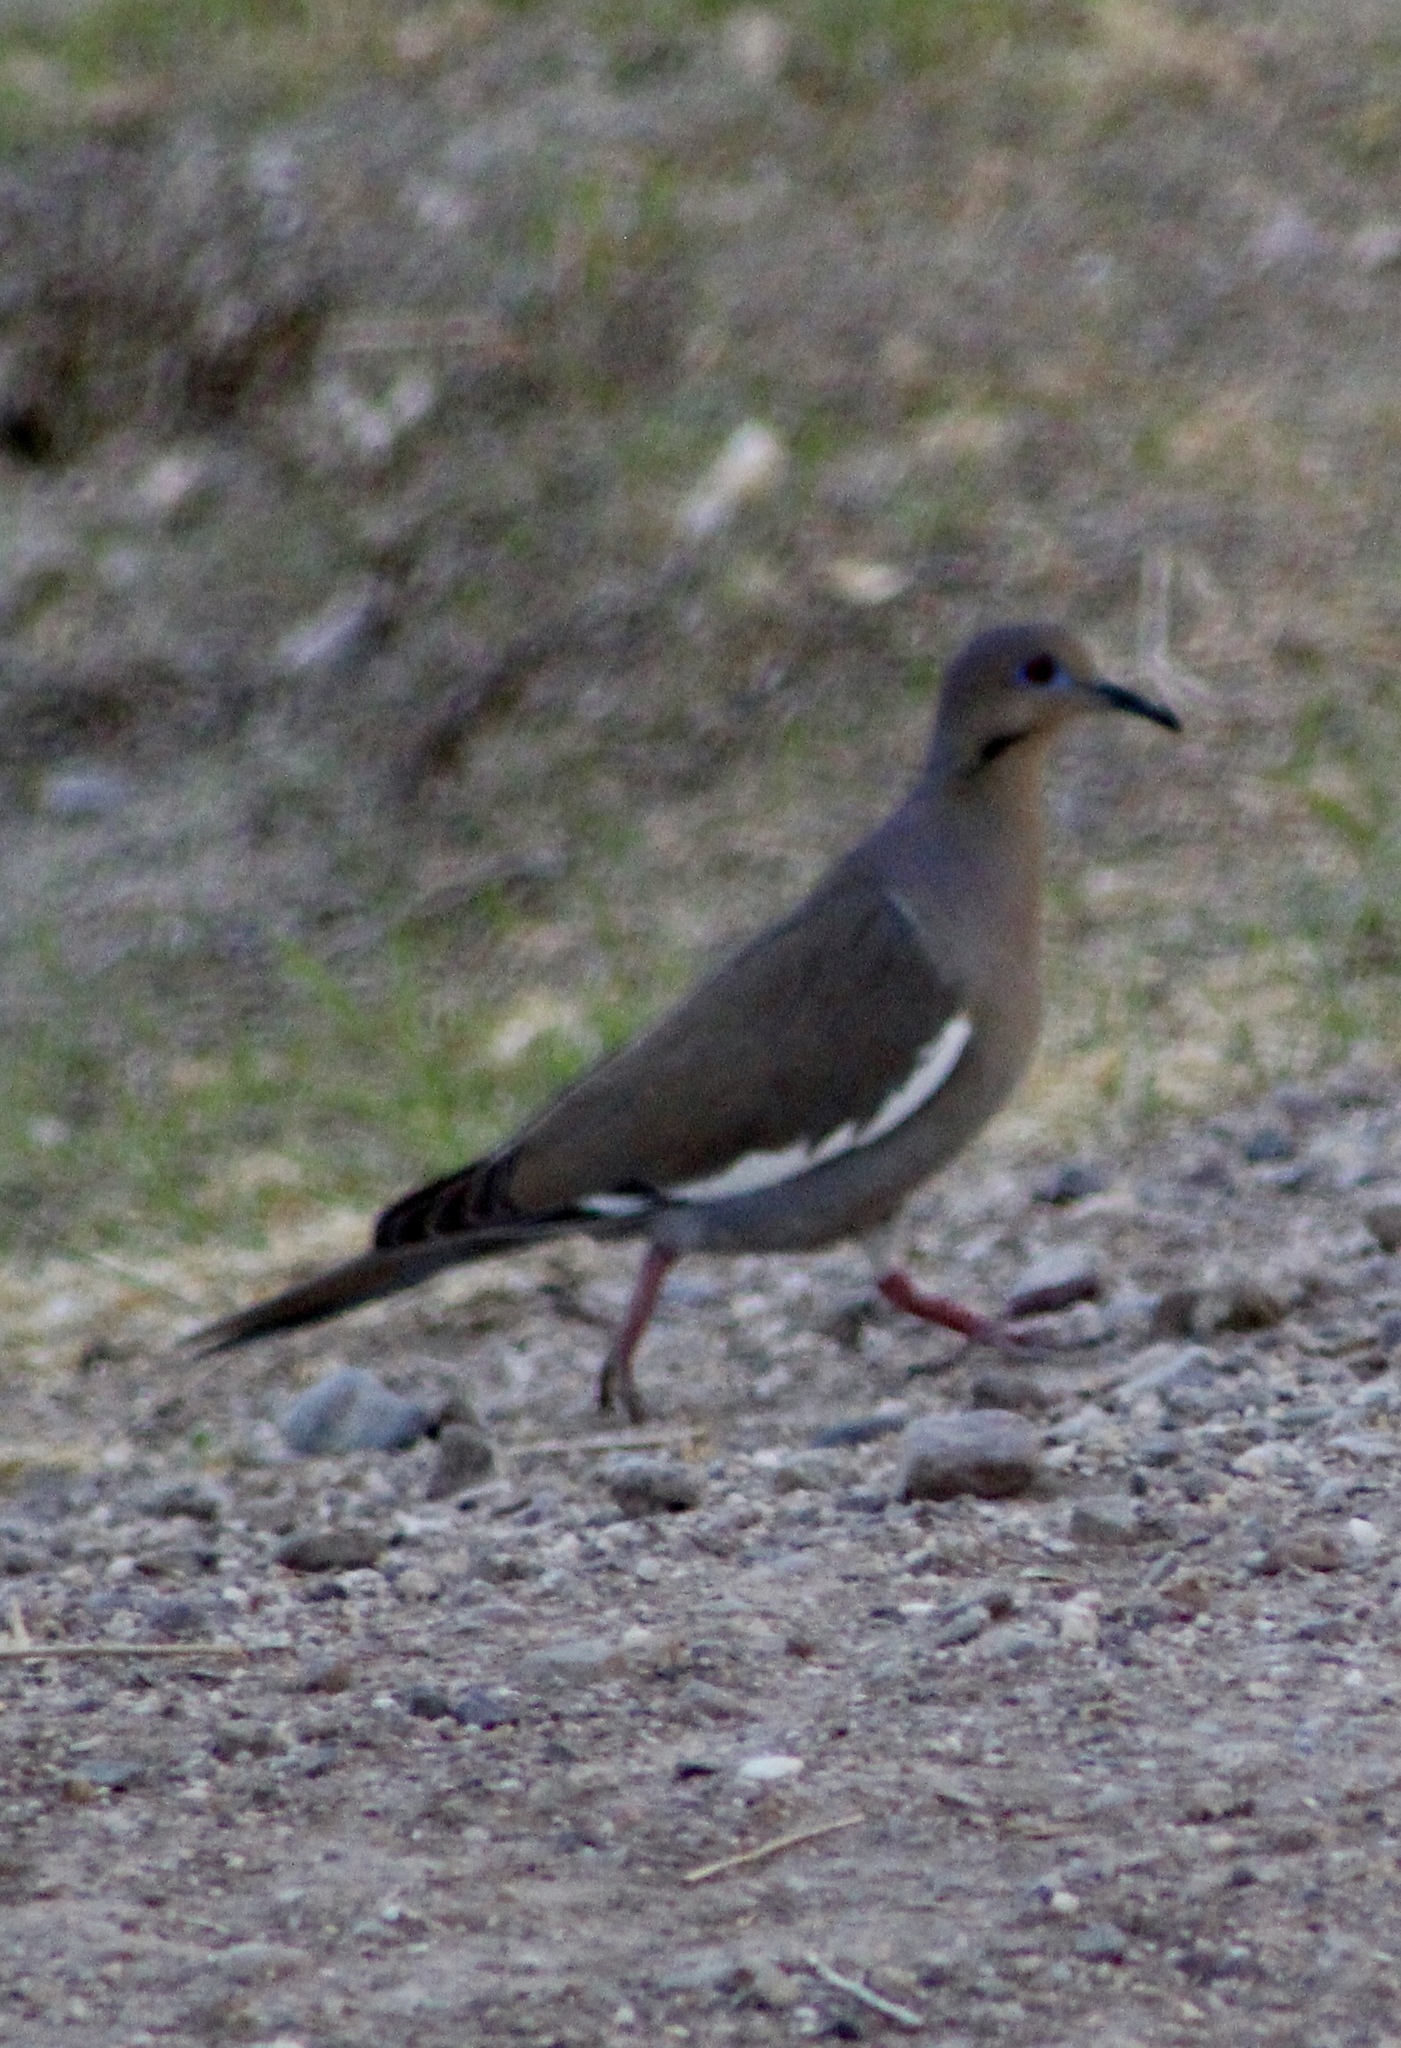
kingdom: Animalia
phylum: Chordata
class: Aves
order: Columbiformes
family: Columbidae
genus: Zenaida
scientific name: Zenaida asiatica
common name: White-winged dove
